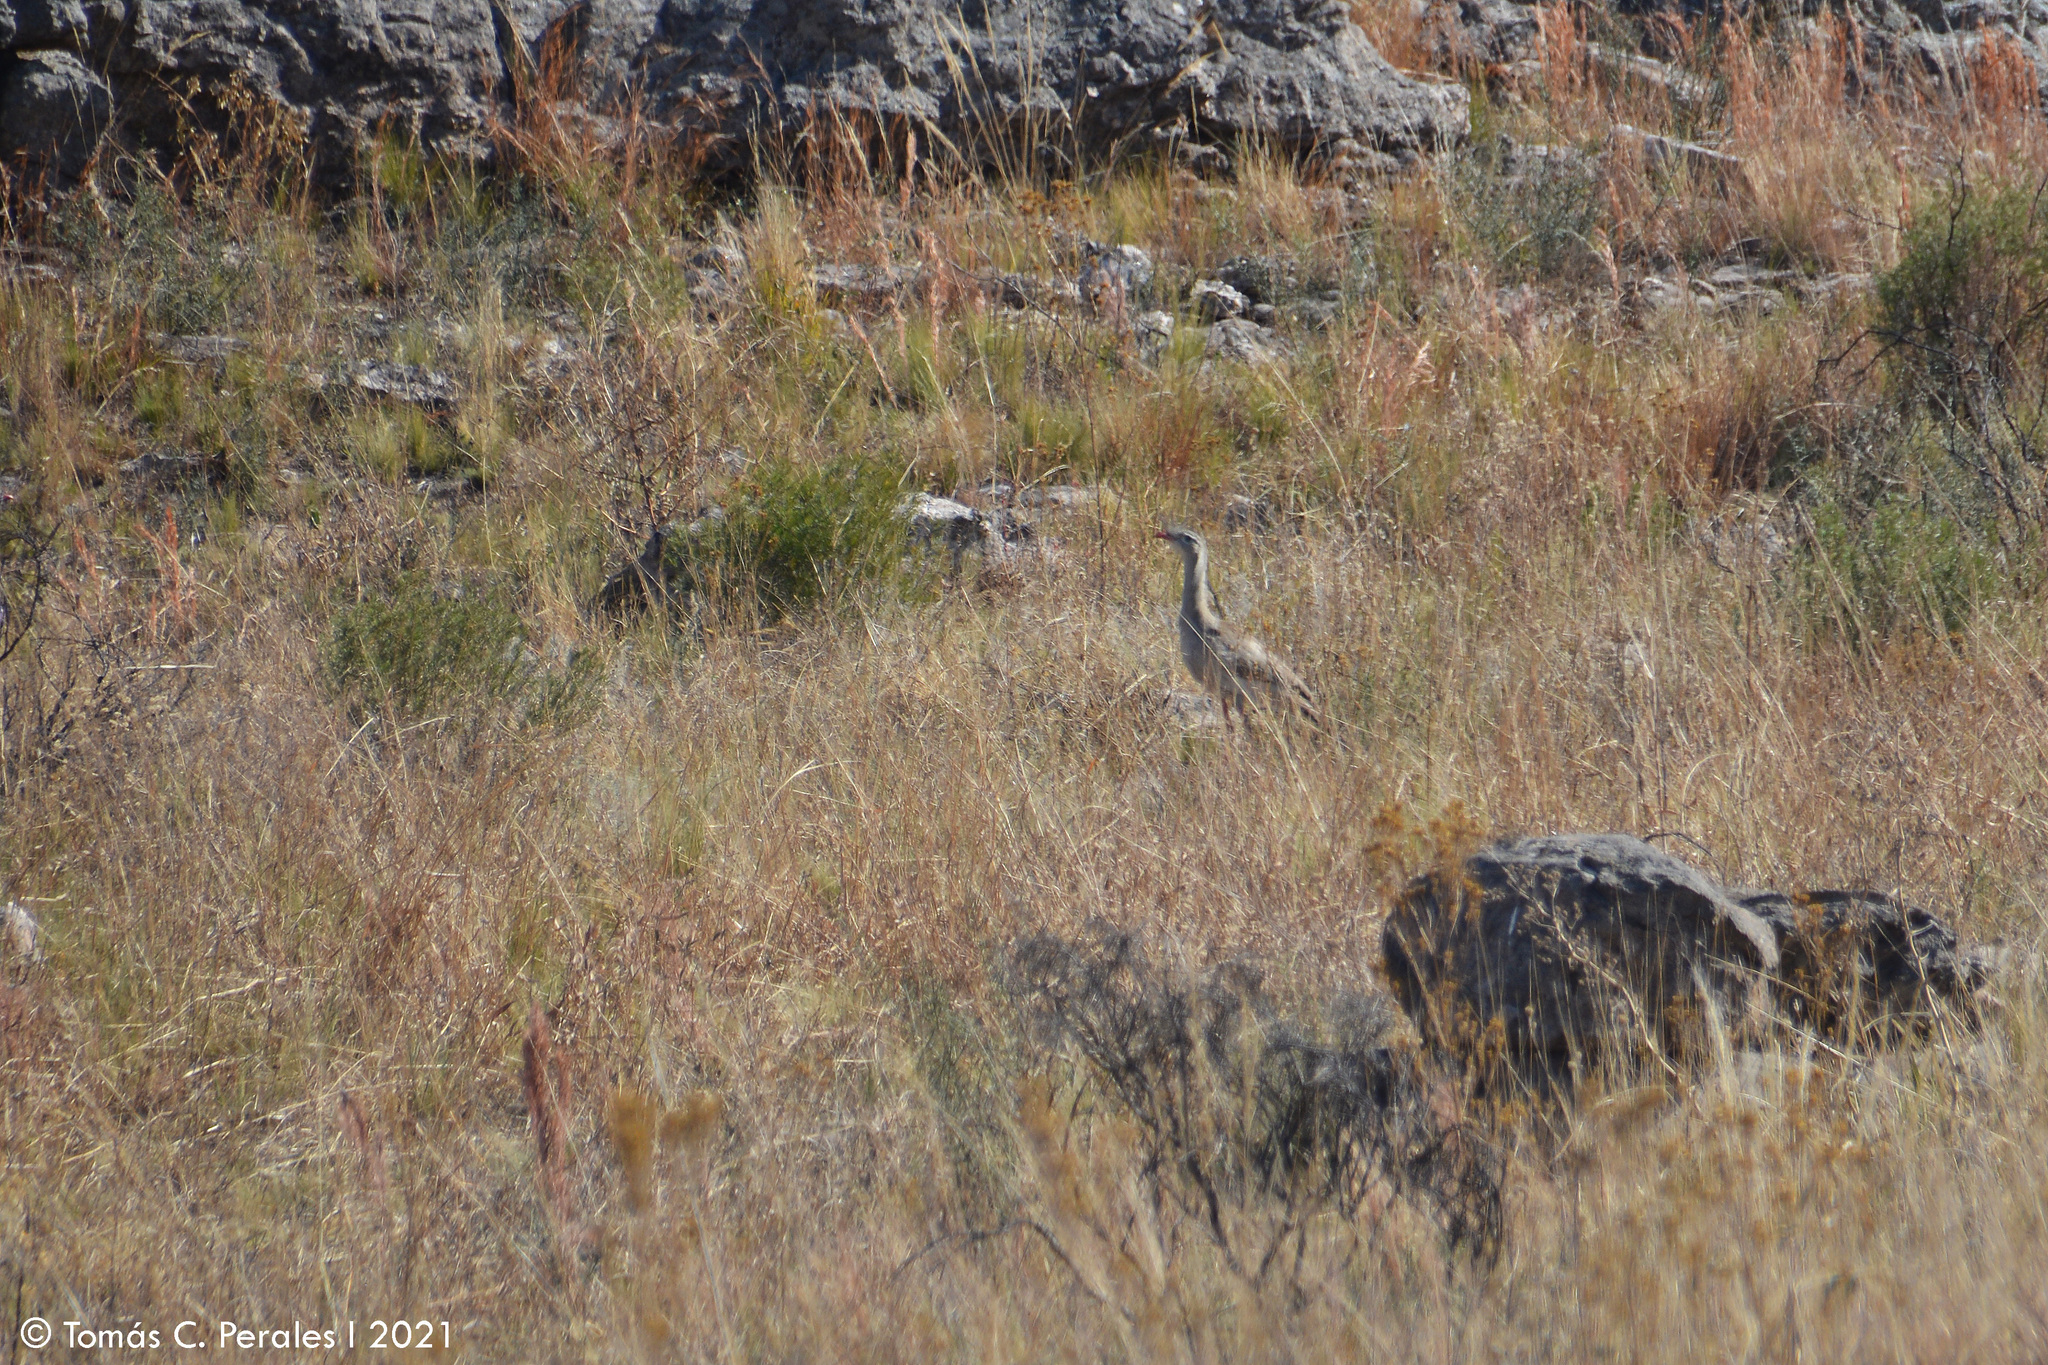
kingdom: Animalia
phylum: Chordata
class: Aves
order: Cariamiformes
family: Cariamidae
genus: Cariama
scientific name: Cariama cristata
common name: Red-legged seriema
